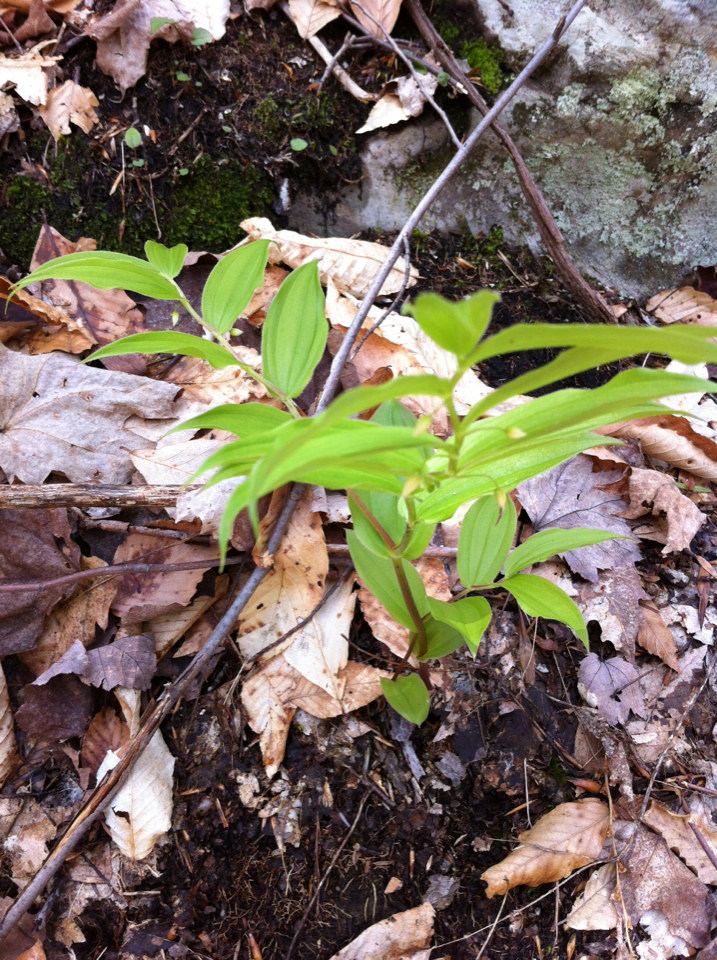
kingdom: Plantae
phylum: Tracheophyta
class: Liliopsida
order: Liliales
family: Liliaceae
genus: Streptopus
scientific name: Streptopus lanceolatus
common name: Rose mandarin
